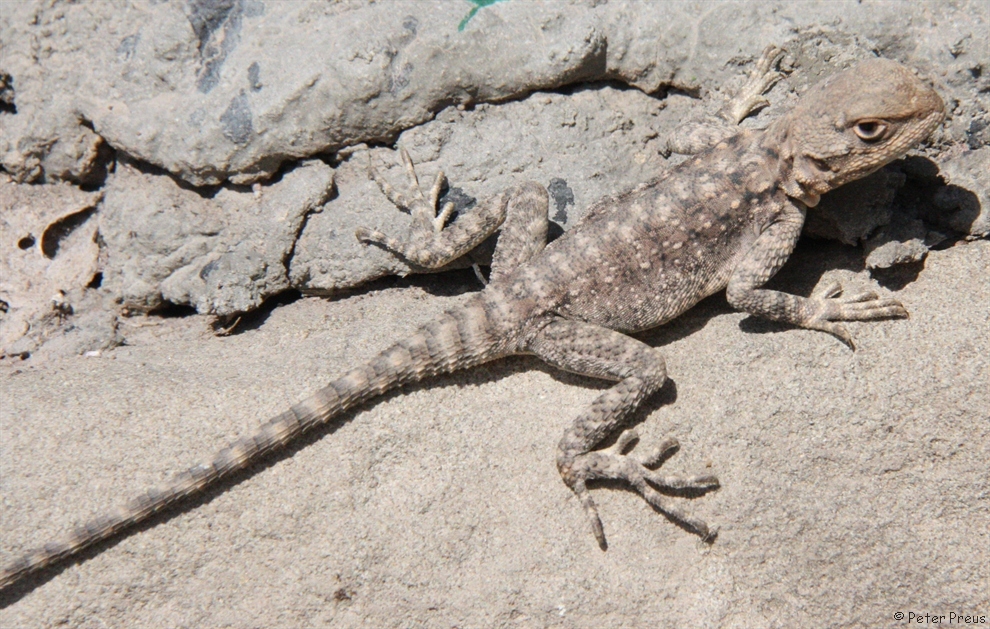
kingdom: Animalia
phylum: Chordata
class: Squamata
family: Agamidae
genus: Paralaudakia
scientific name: Paralaudakia caucasia
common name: Caucasian agama
